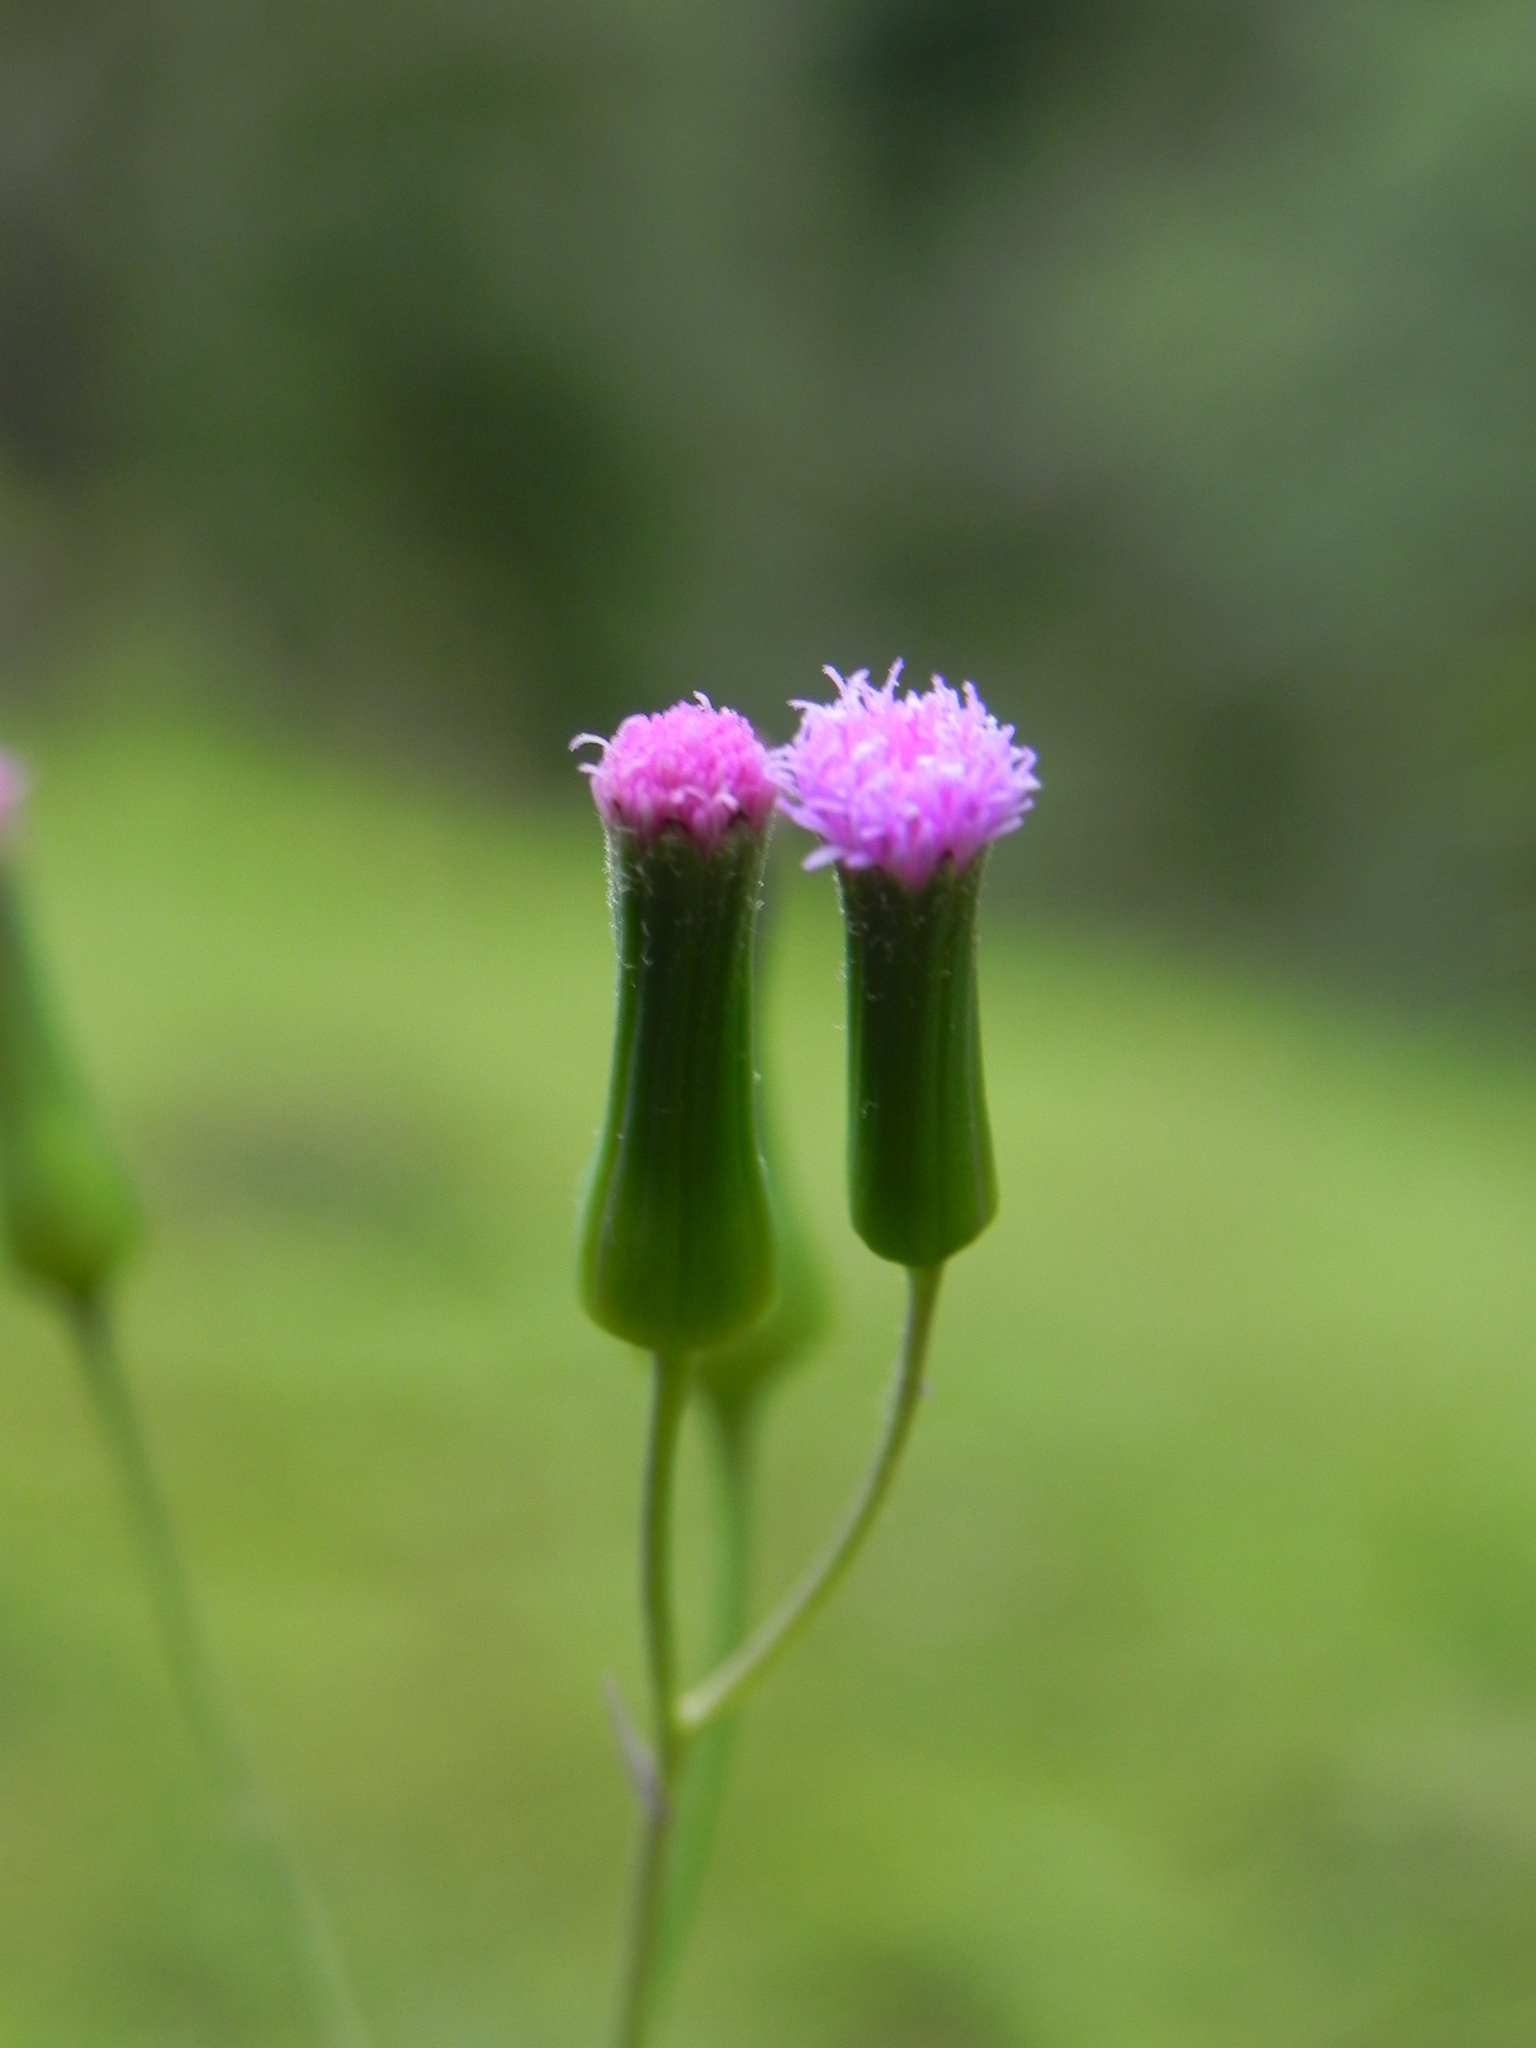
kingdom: Plantae
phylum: Tracheophyta
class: Magnoliopsida
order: Asterales
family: Asteraceae
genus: Emilia
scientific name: Emilia sonchifolia
